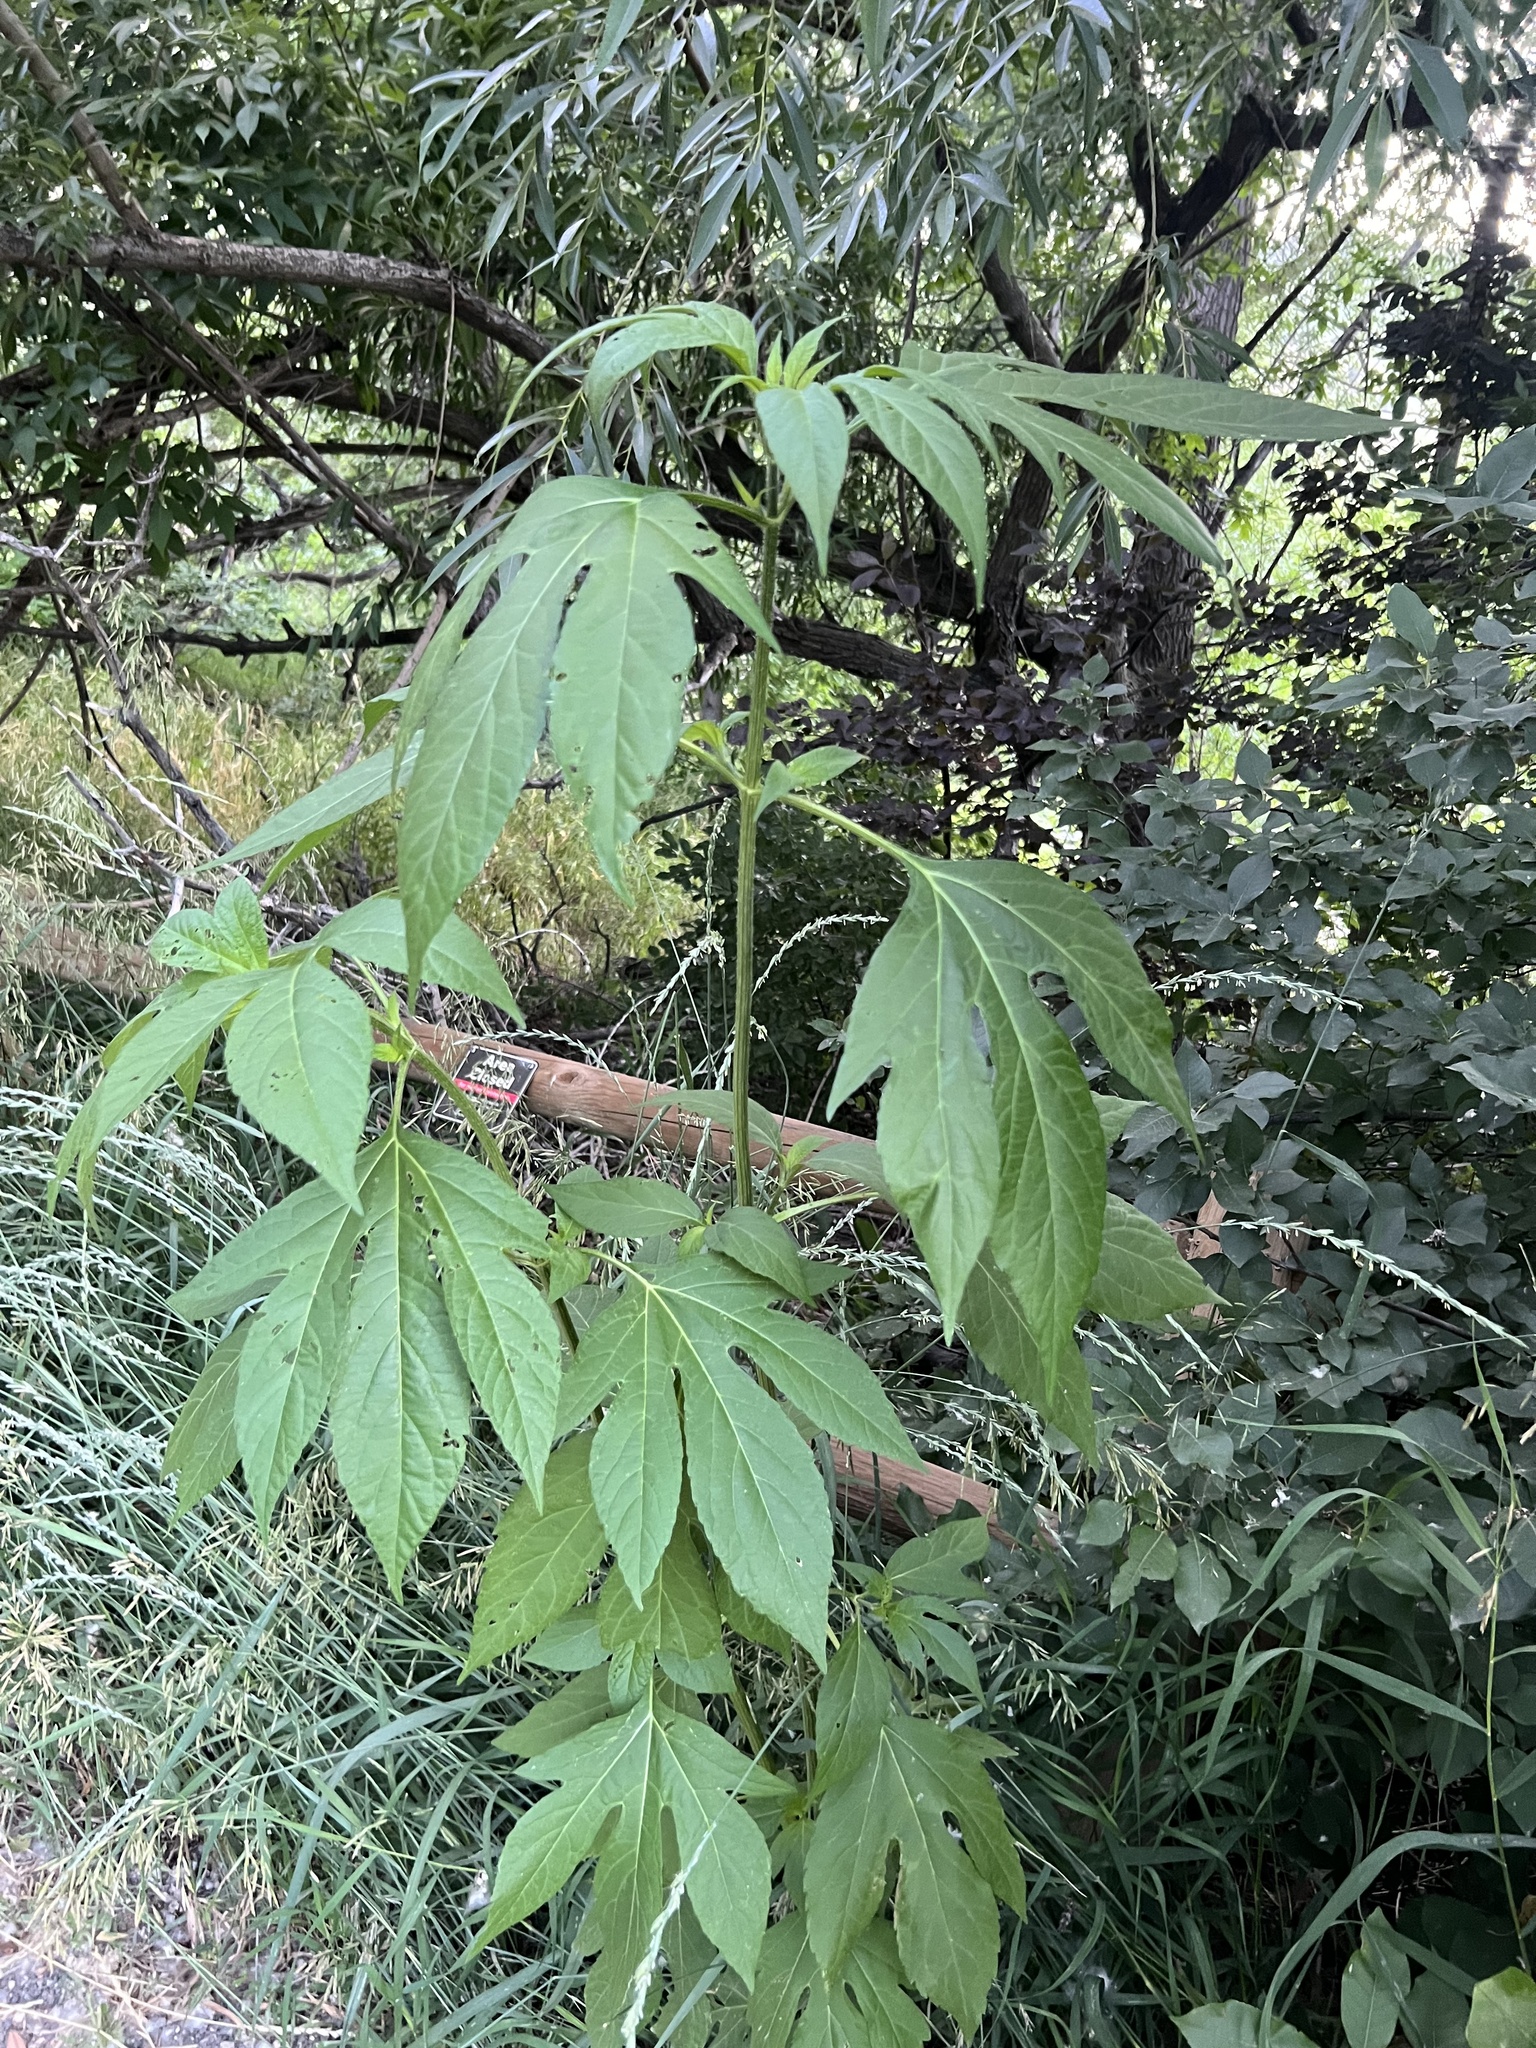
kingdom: Plantae
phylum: Tracheophyta
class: Magnoliopsida
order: Asterales
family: Asteraceae
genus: Ambrosia
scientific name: Ambrosia trifida
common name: Giant ragweed
